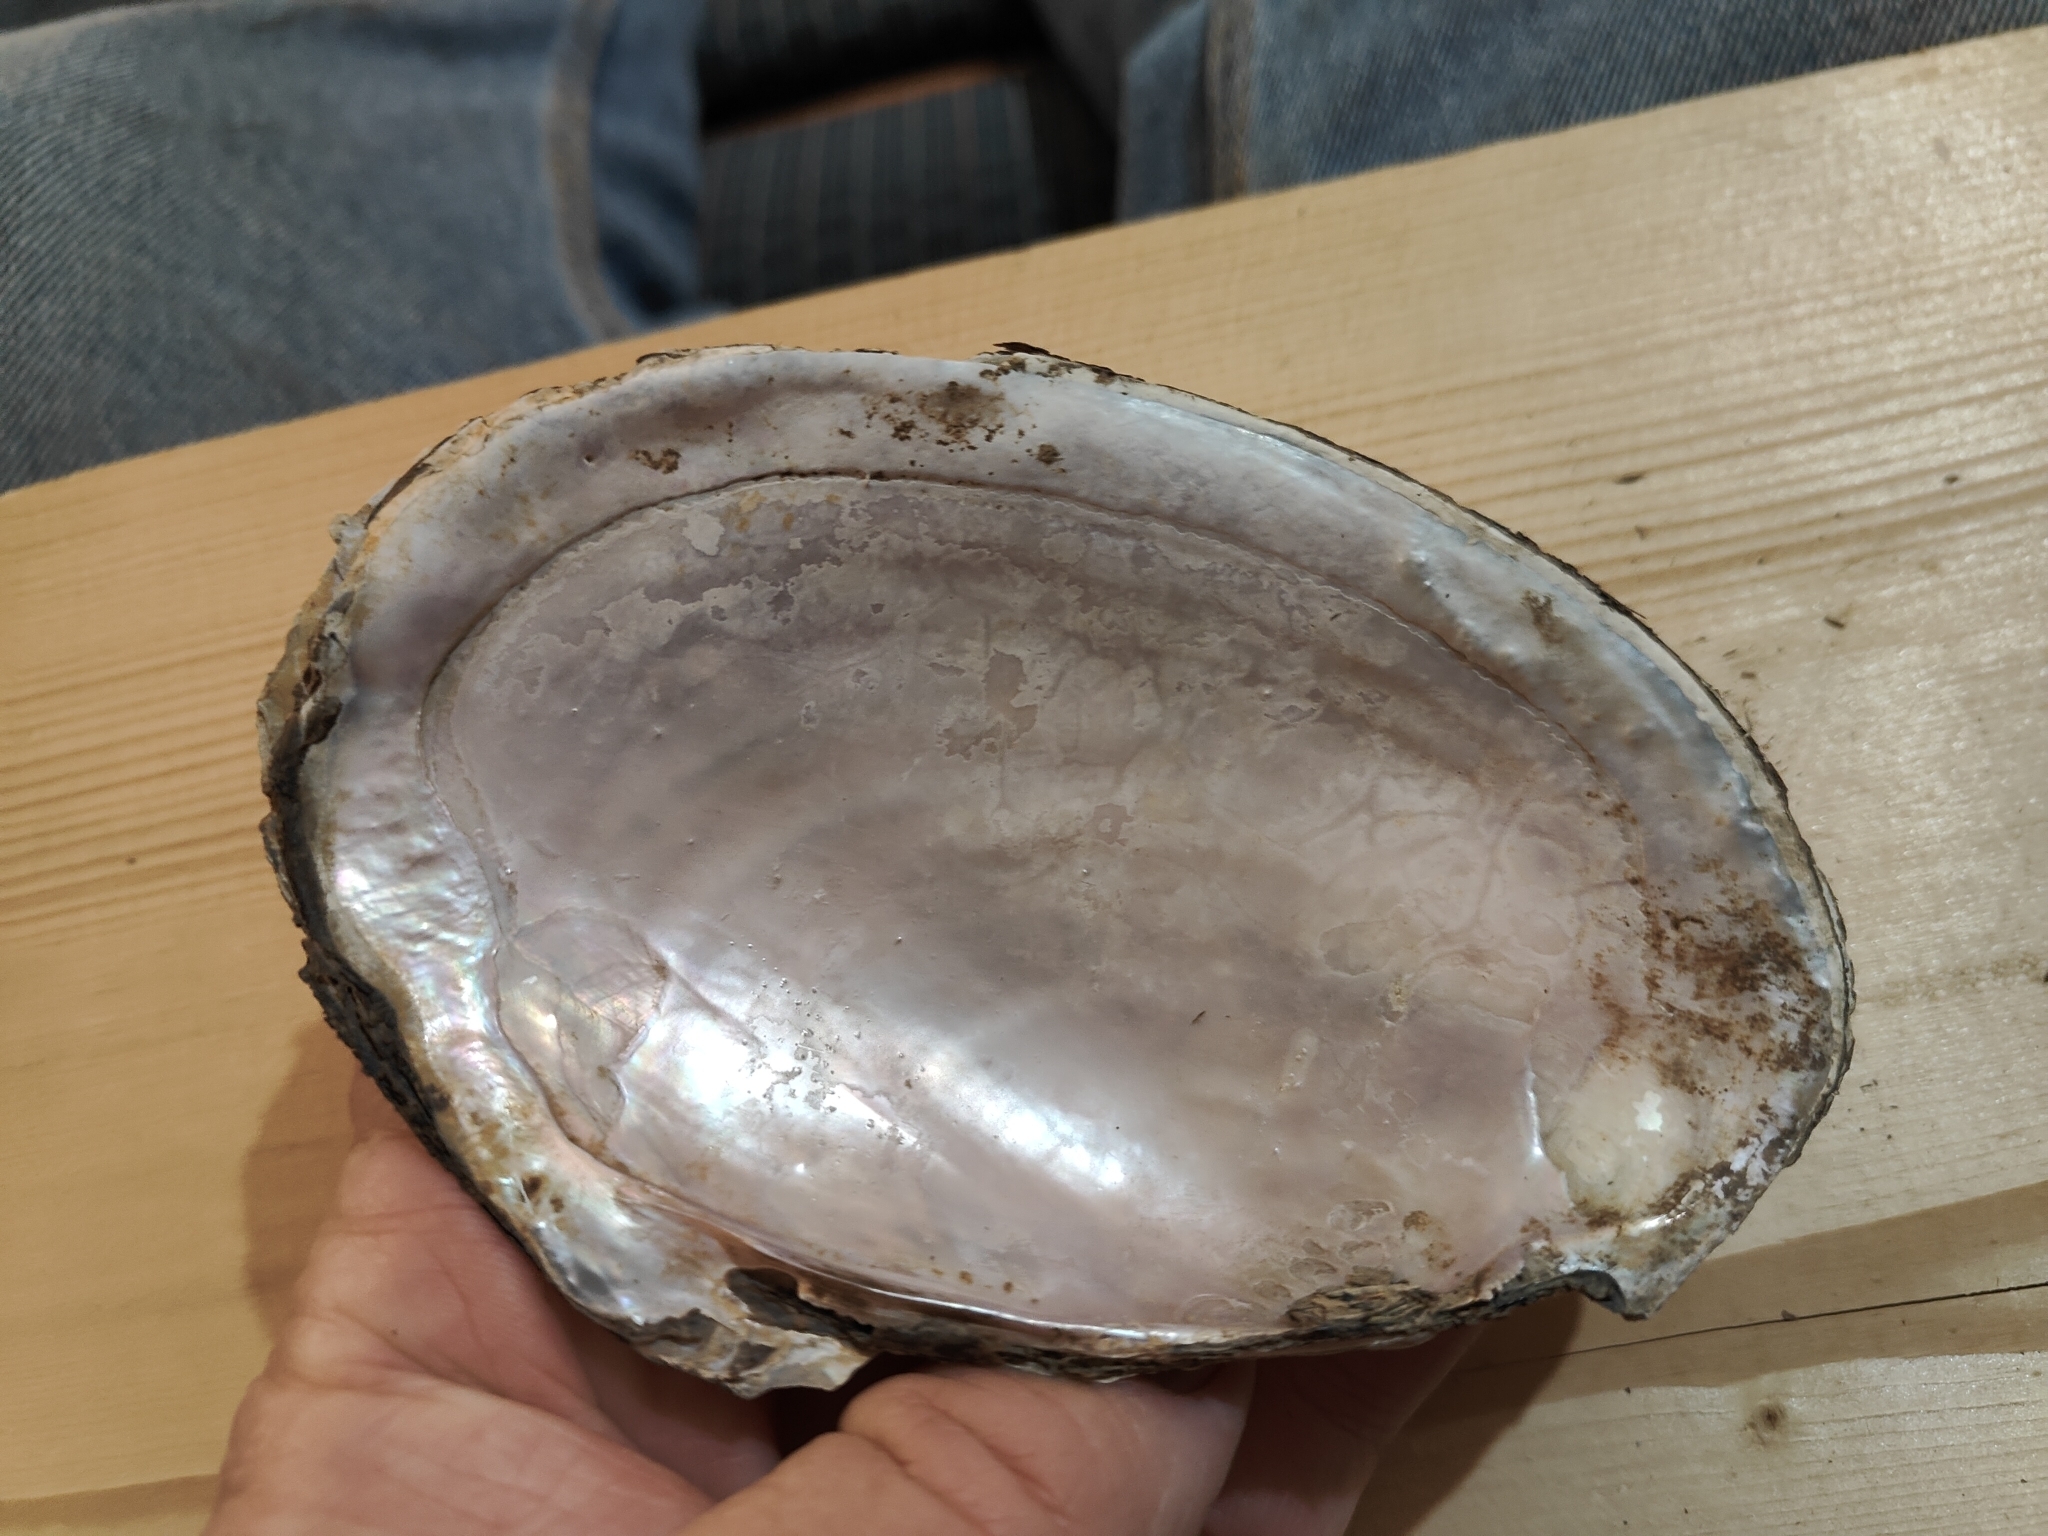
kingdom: Animalia
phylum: Mollusca
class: Bivalvia
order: Unionida
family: Unionidae
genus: Potamilus
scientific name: Potamilus ohiensis
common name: Pink papershell
